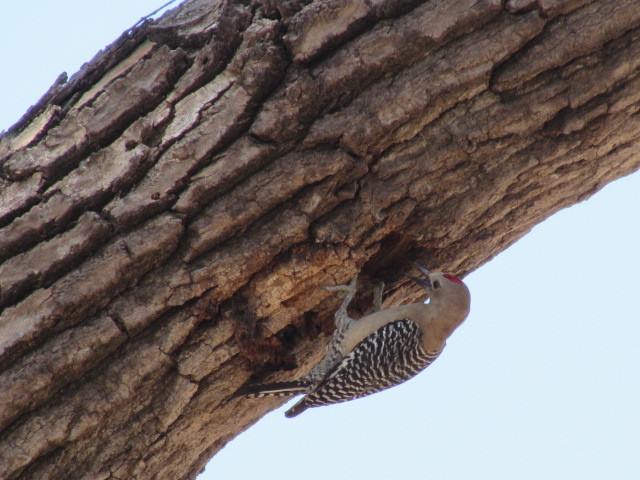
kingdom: Animalia
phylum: Chordata
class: Aves
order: Piciformes
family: Picidae
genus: Melanerpes
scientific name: Melanerpes uropygialis
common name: Gila woodpecker
